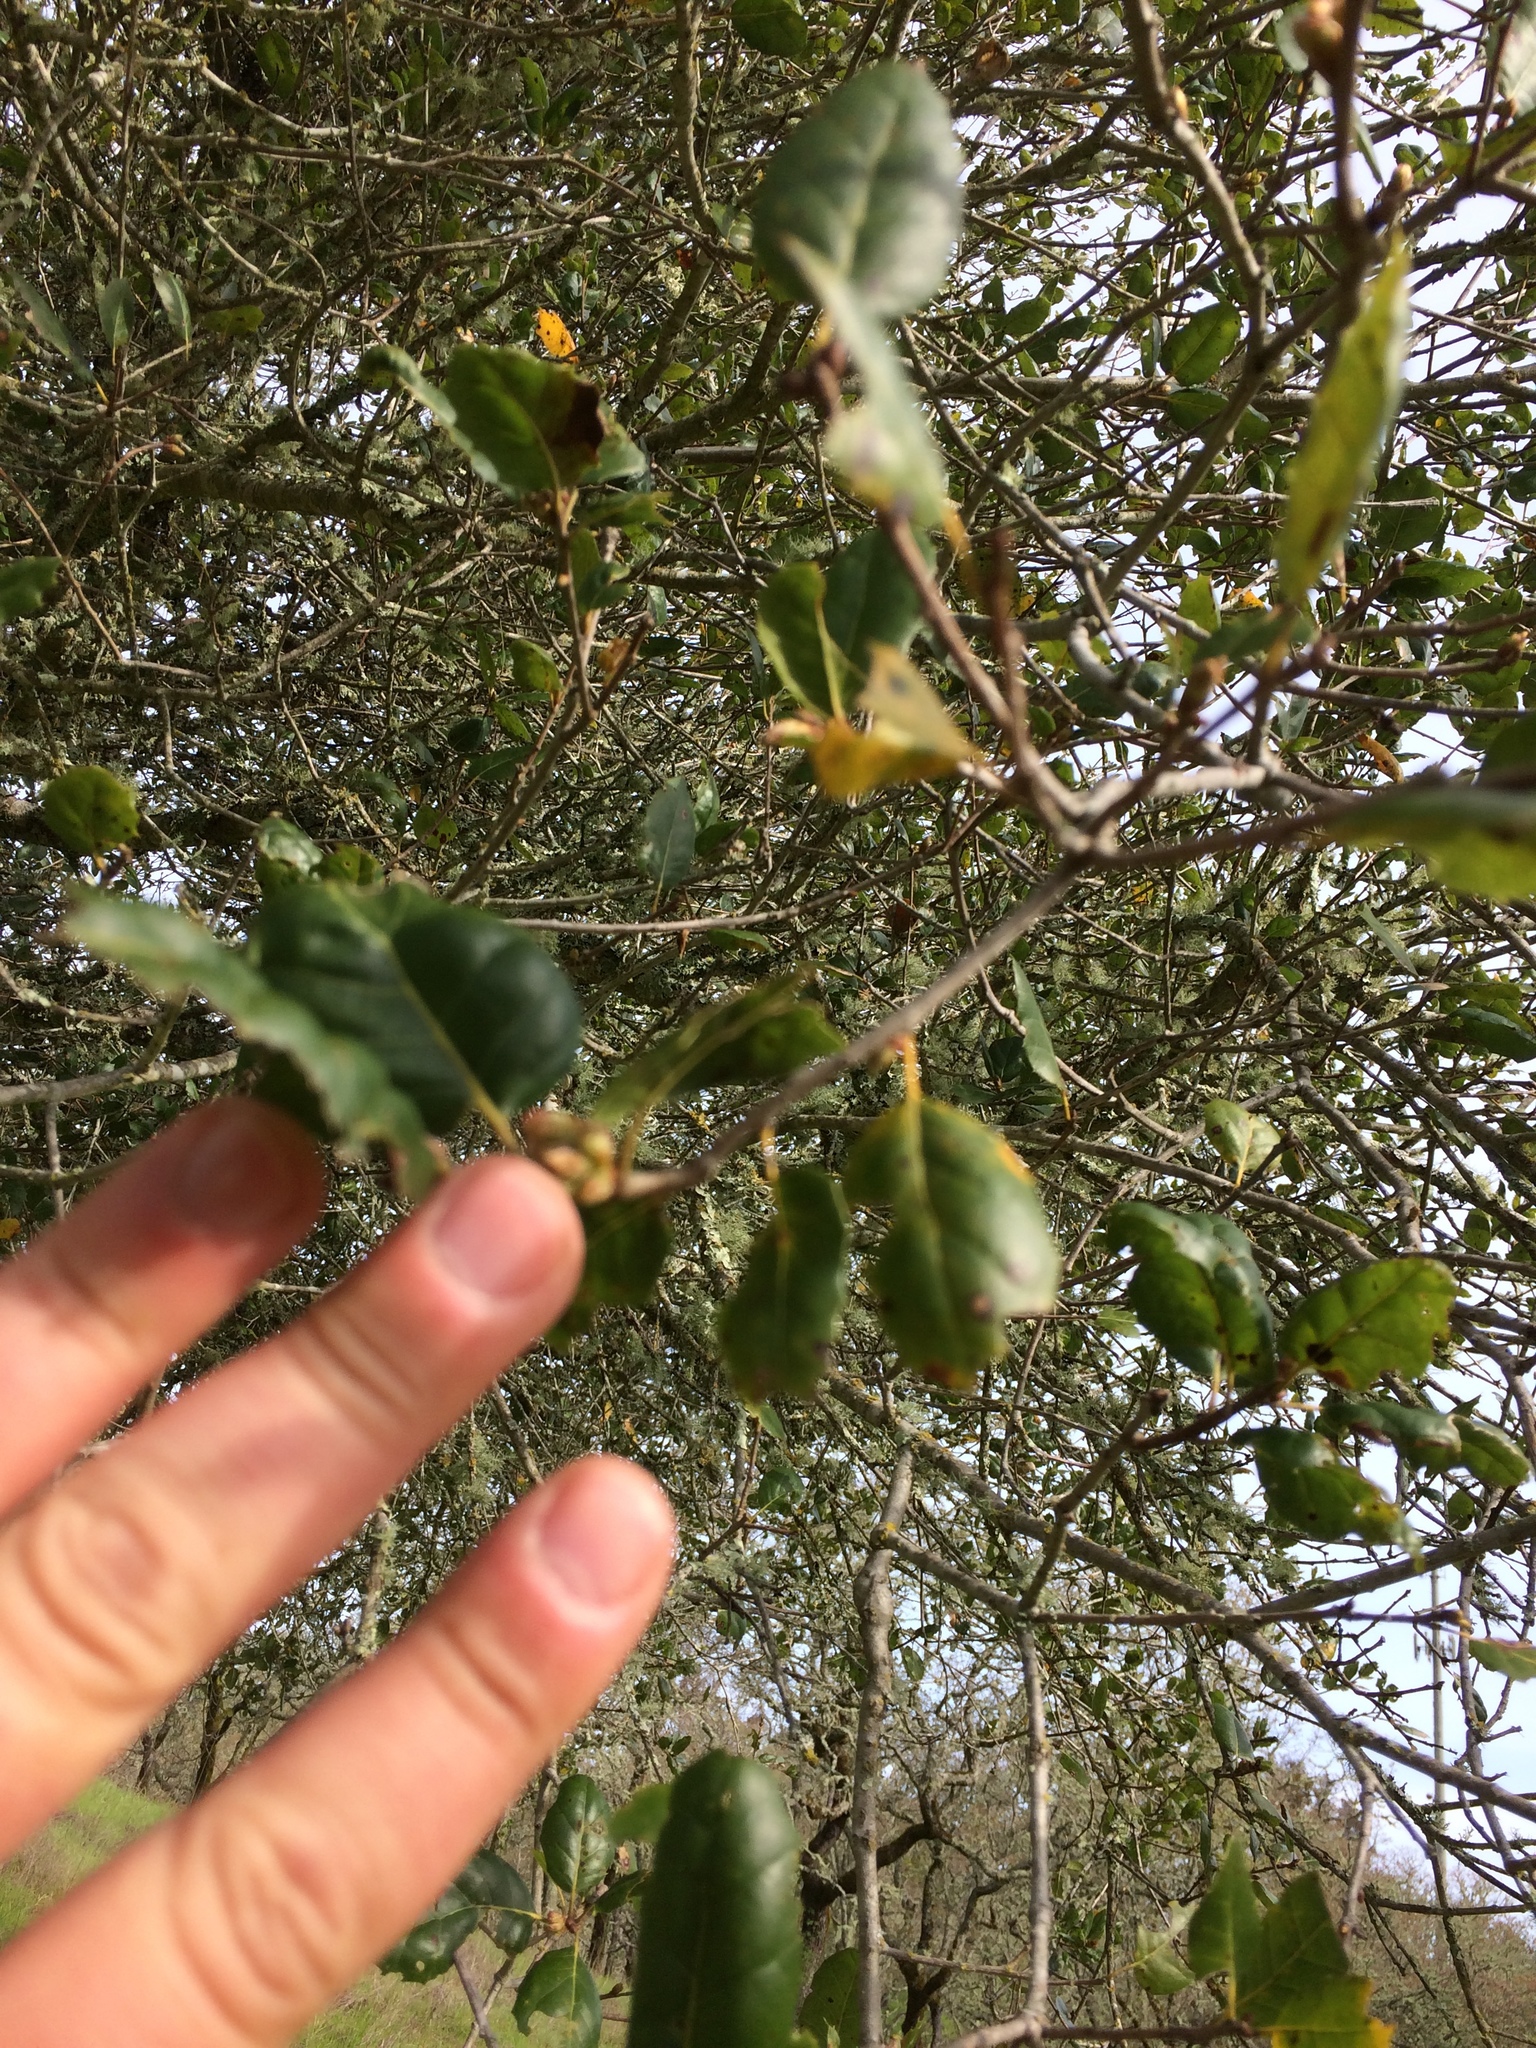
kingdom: Plantae
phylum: Tracheophyta
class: Magnoliopsida
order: Fagales
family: Fagaceae
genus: Quercus
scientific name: Quercus agrifolia
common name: California live oak
